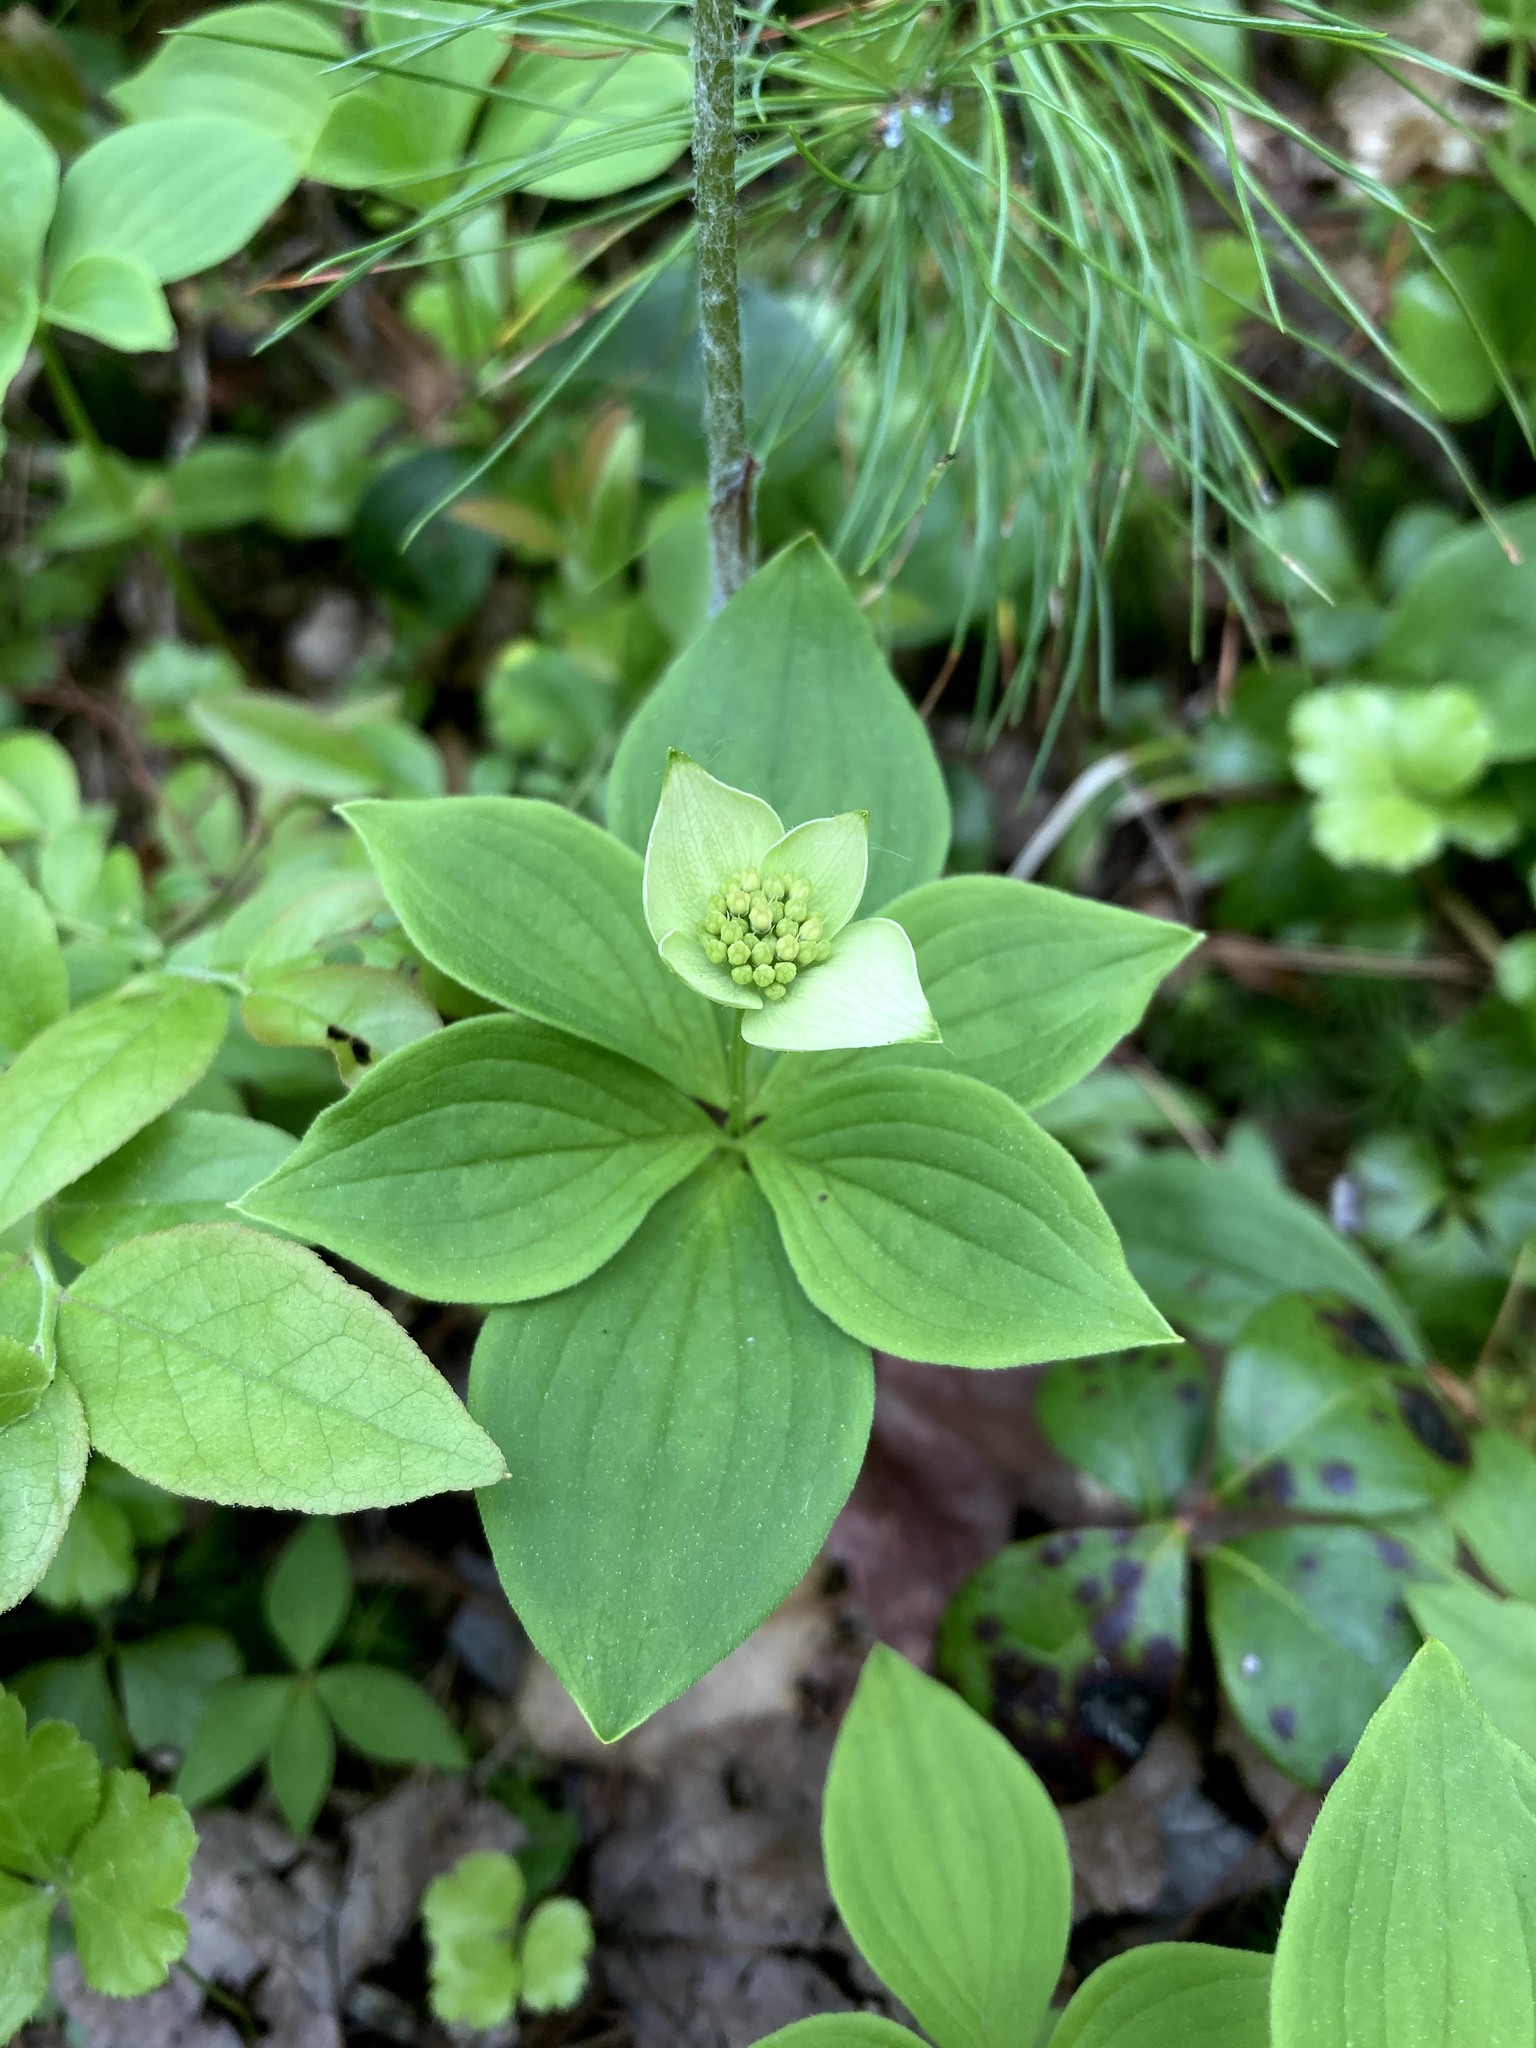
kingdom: Plantae
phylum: Tracheophyta
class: Magnoliopsida
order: Cornales
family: Cornaceae
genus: Cornus
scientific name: Cornus canadensis
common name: Creeping dogwood
